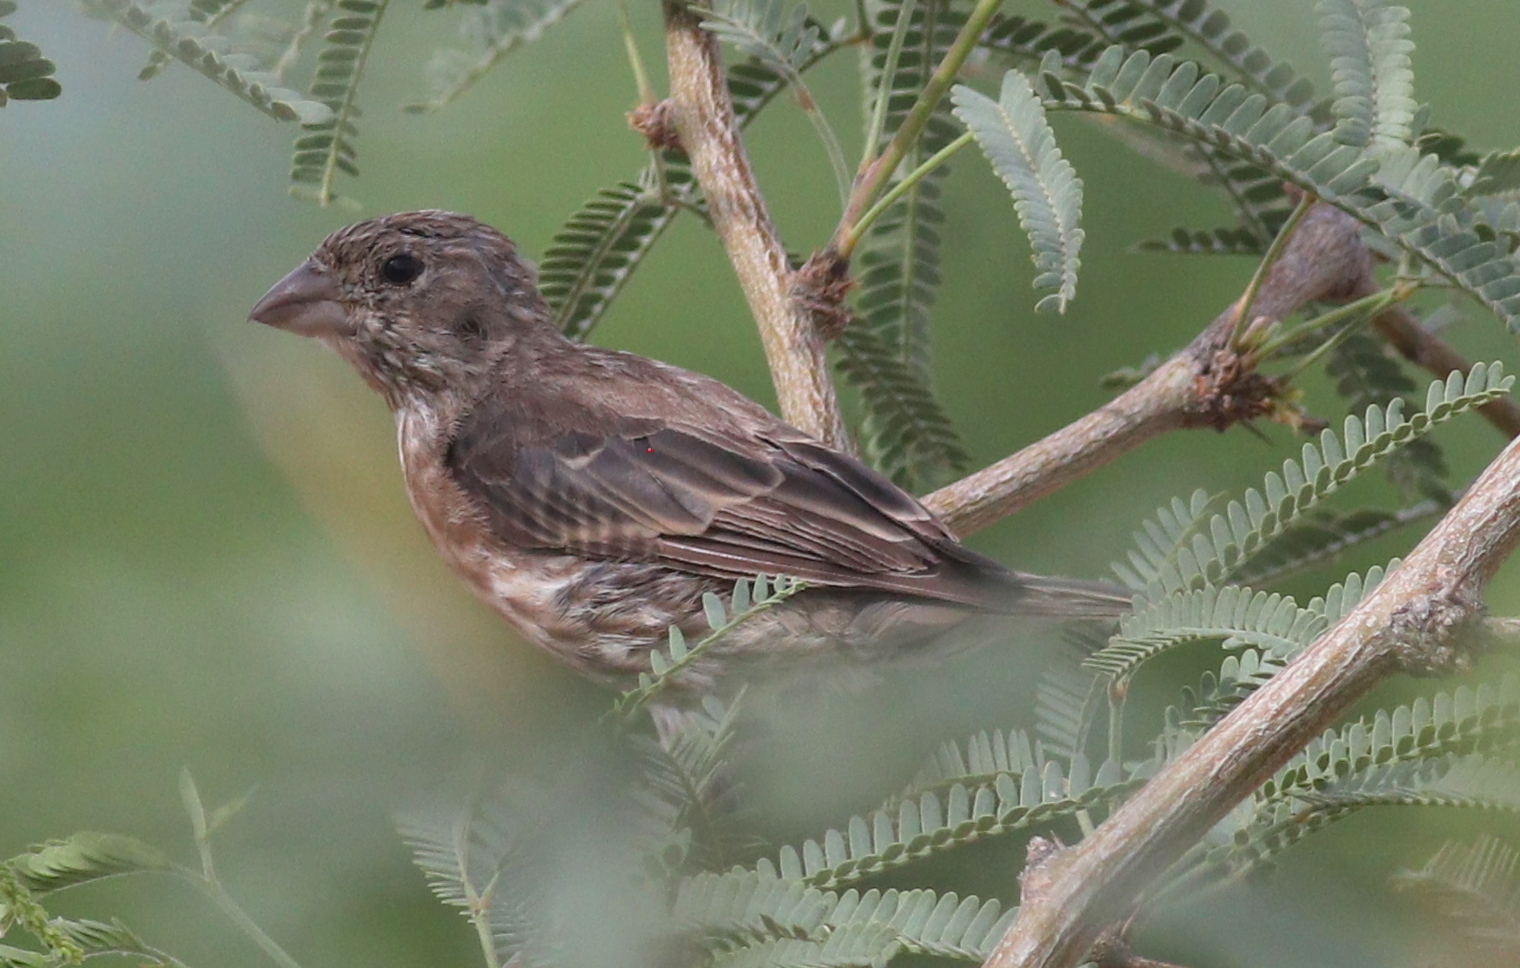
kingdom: Animalia
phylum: Chordata
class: Aves
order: Passeriformes
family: Fringillidae
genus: Haemorhous
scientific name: Haemorhous mexicanus
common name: House finch
